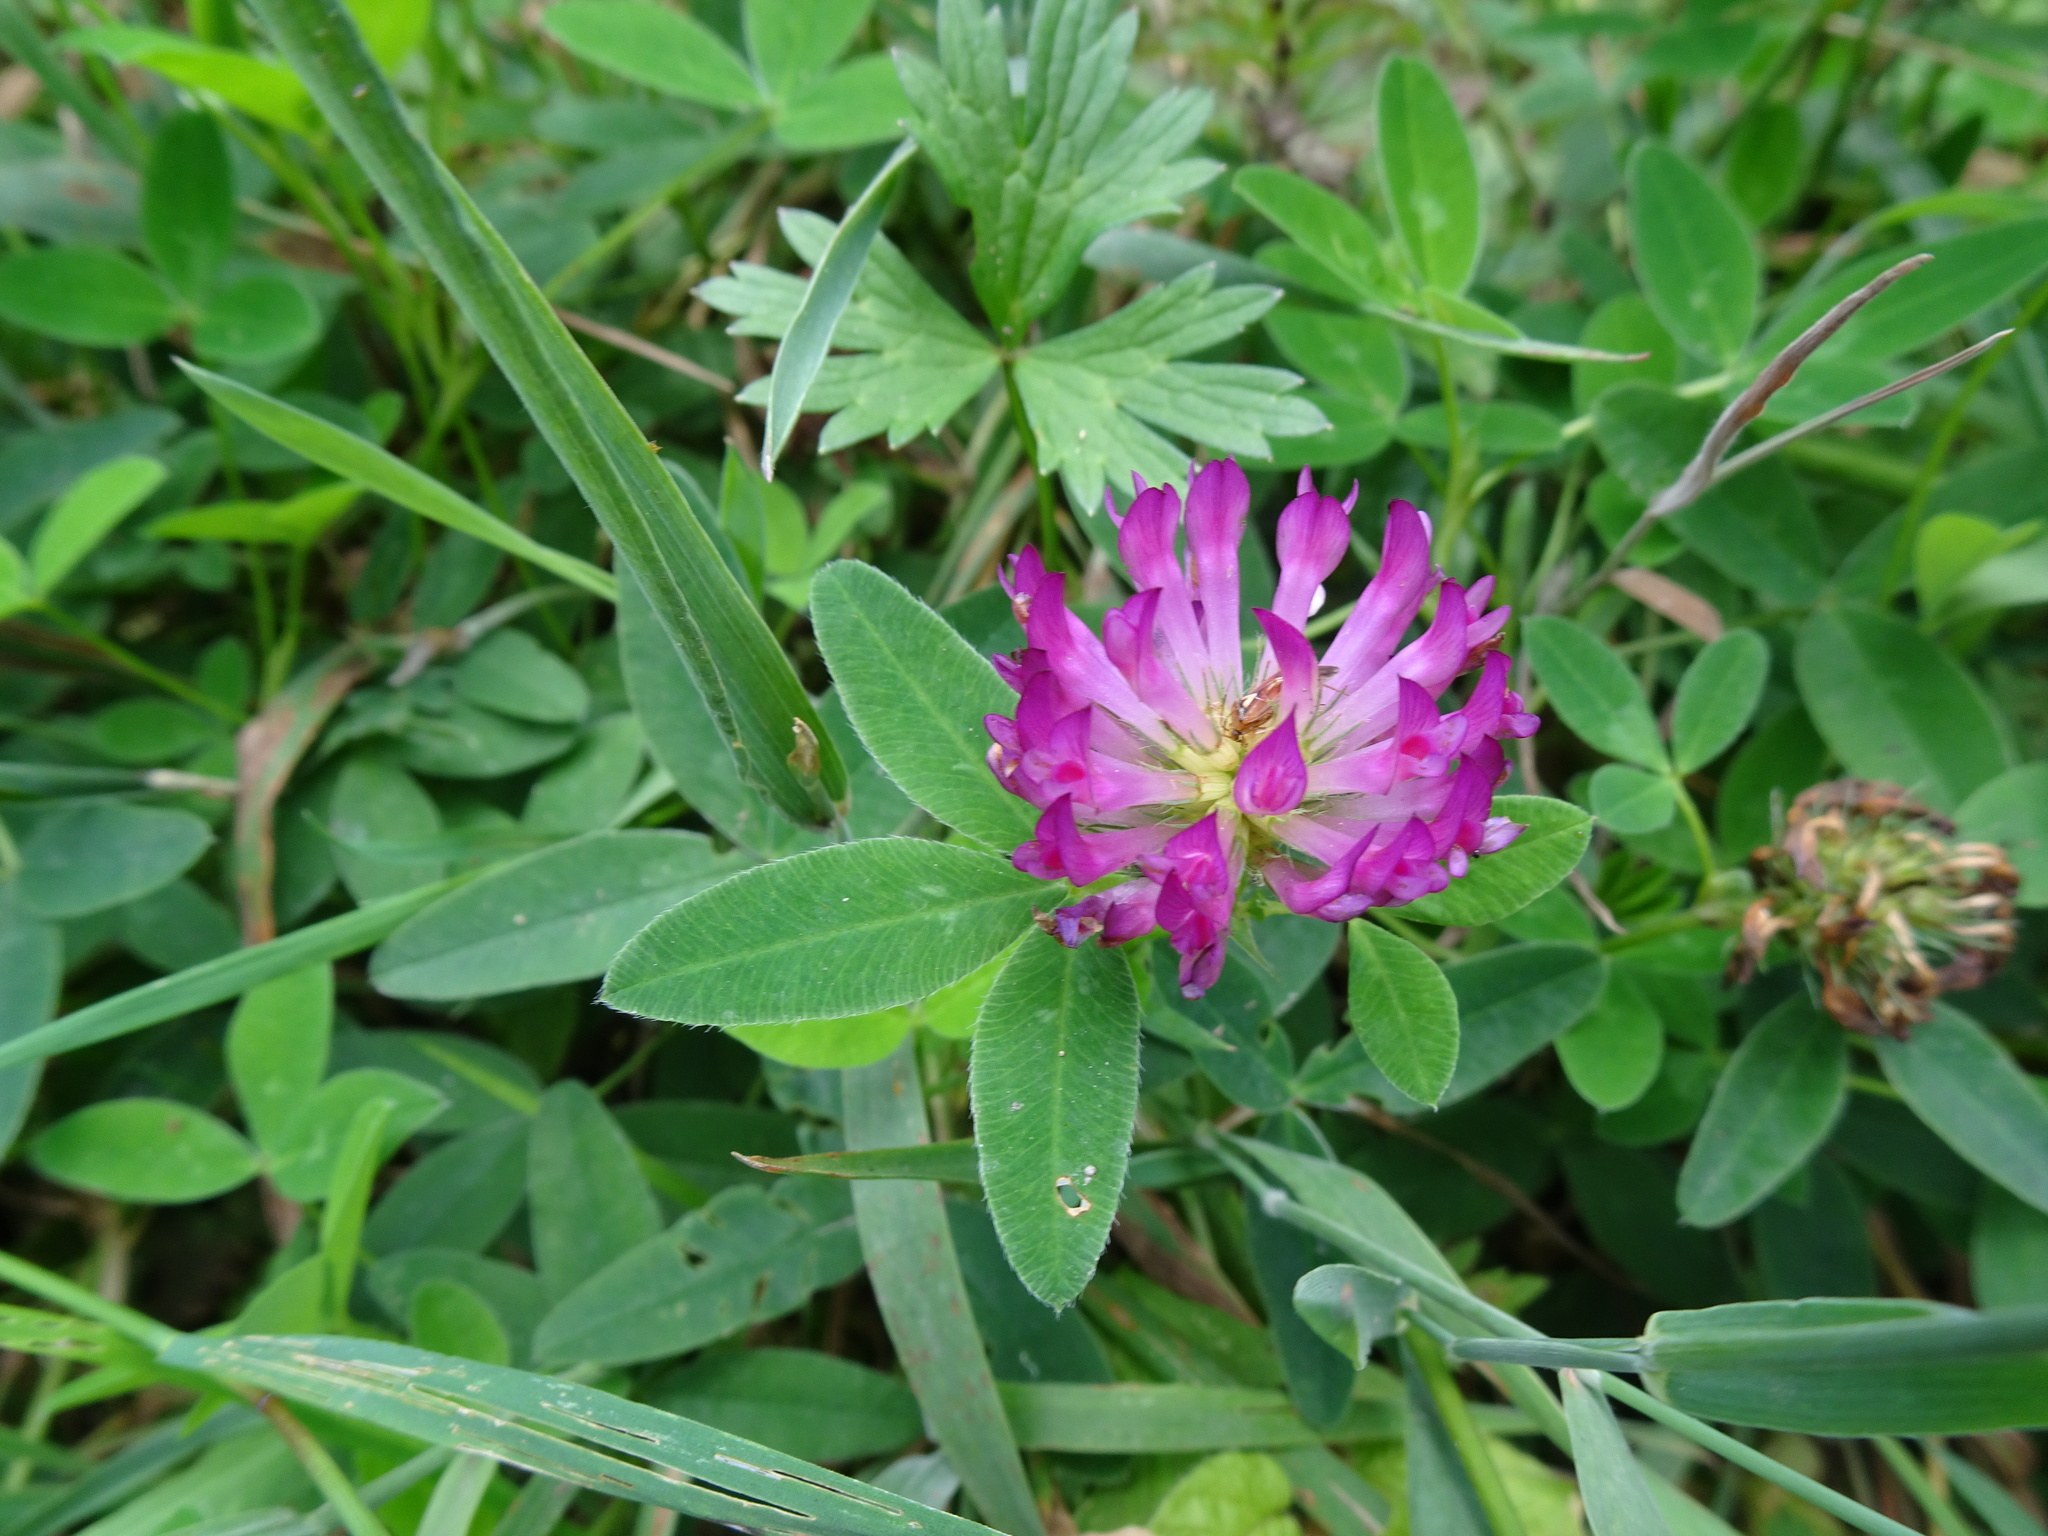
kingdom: Plantae
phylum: Tracheophyta
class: Magnoliopsida
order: Fabales
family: Fabaceae
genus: Trifolium
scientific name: Trifolium medium
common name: Zigzag clover
